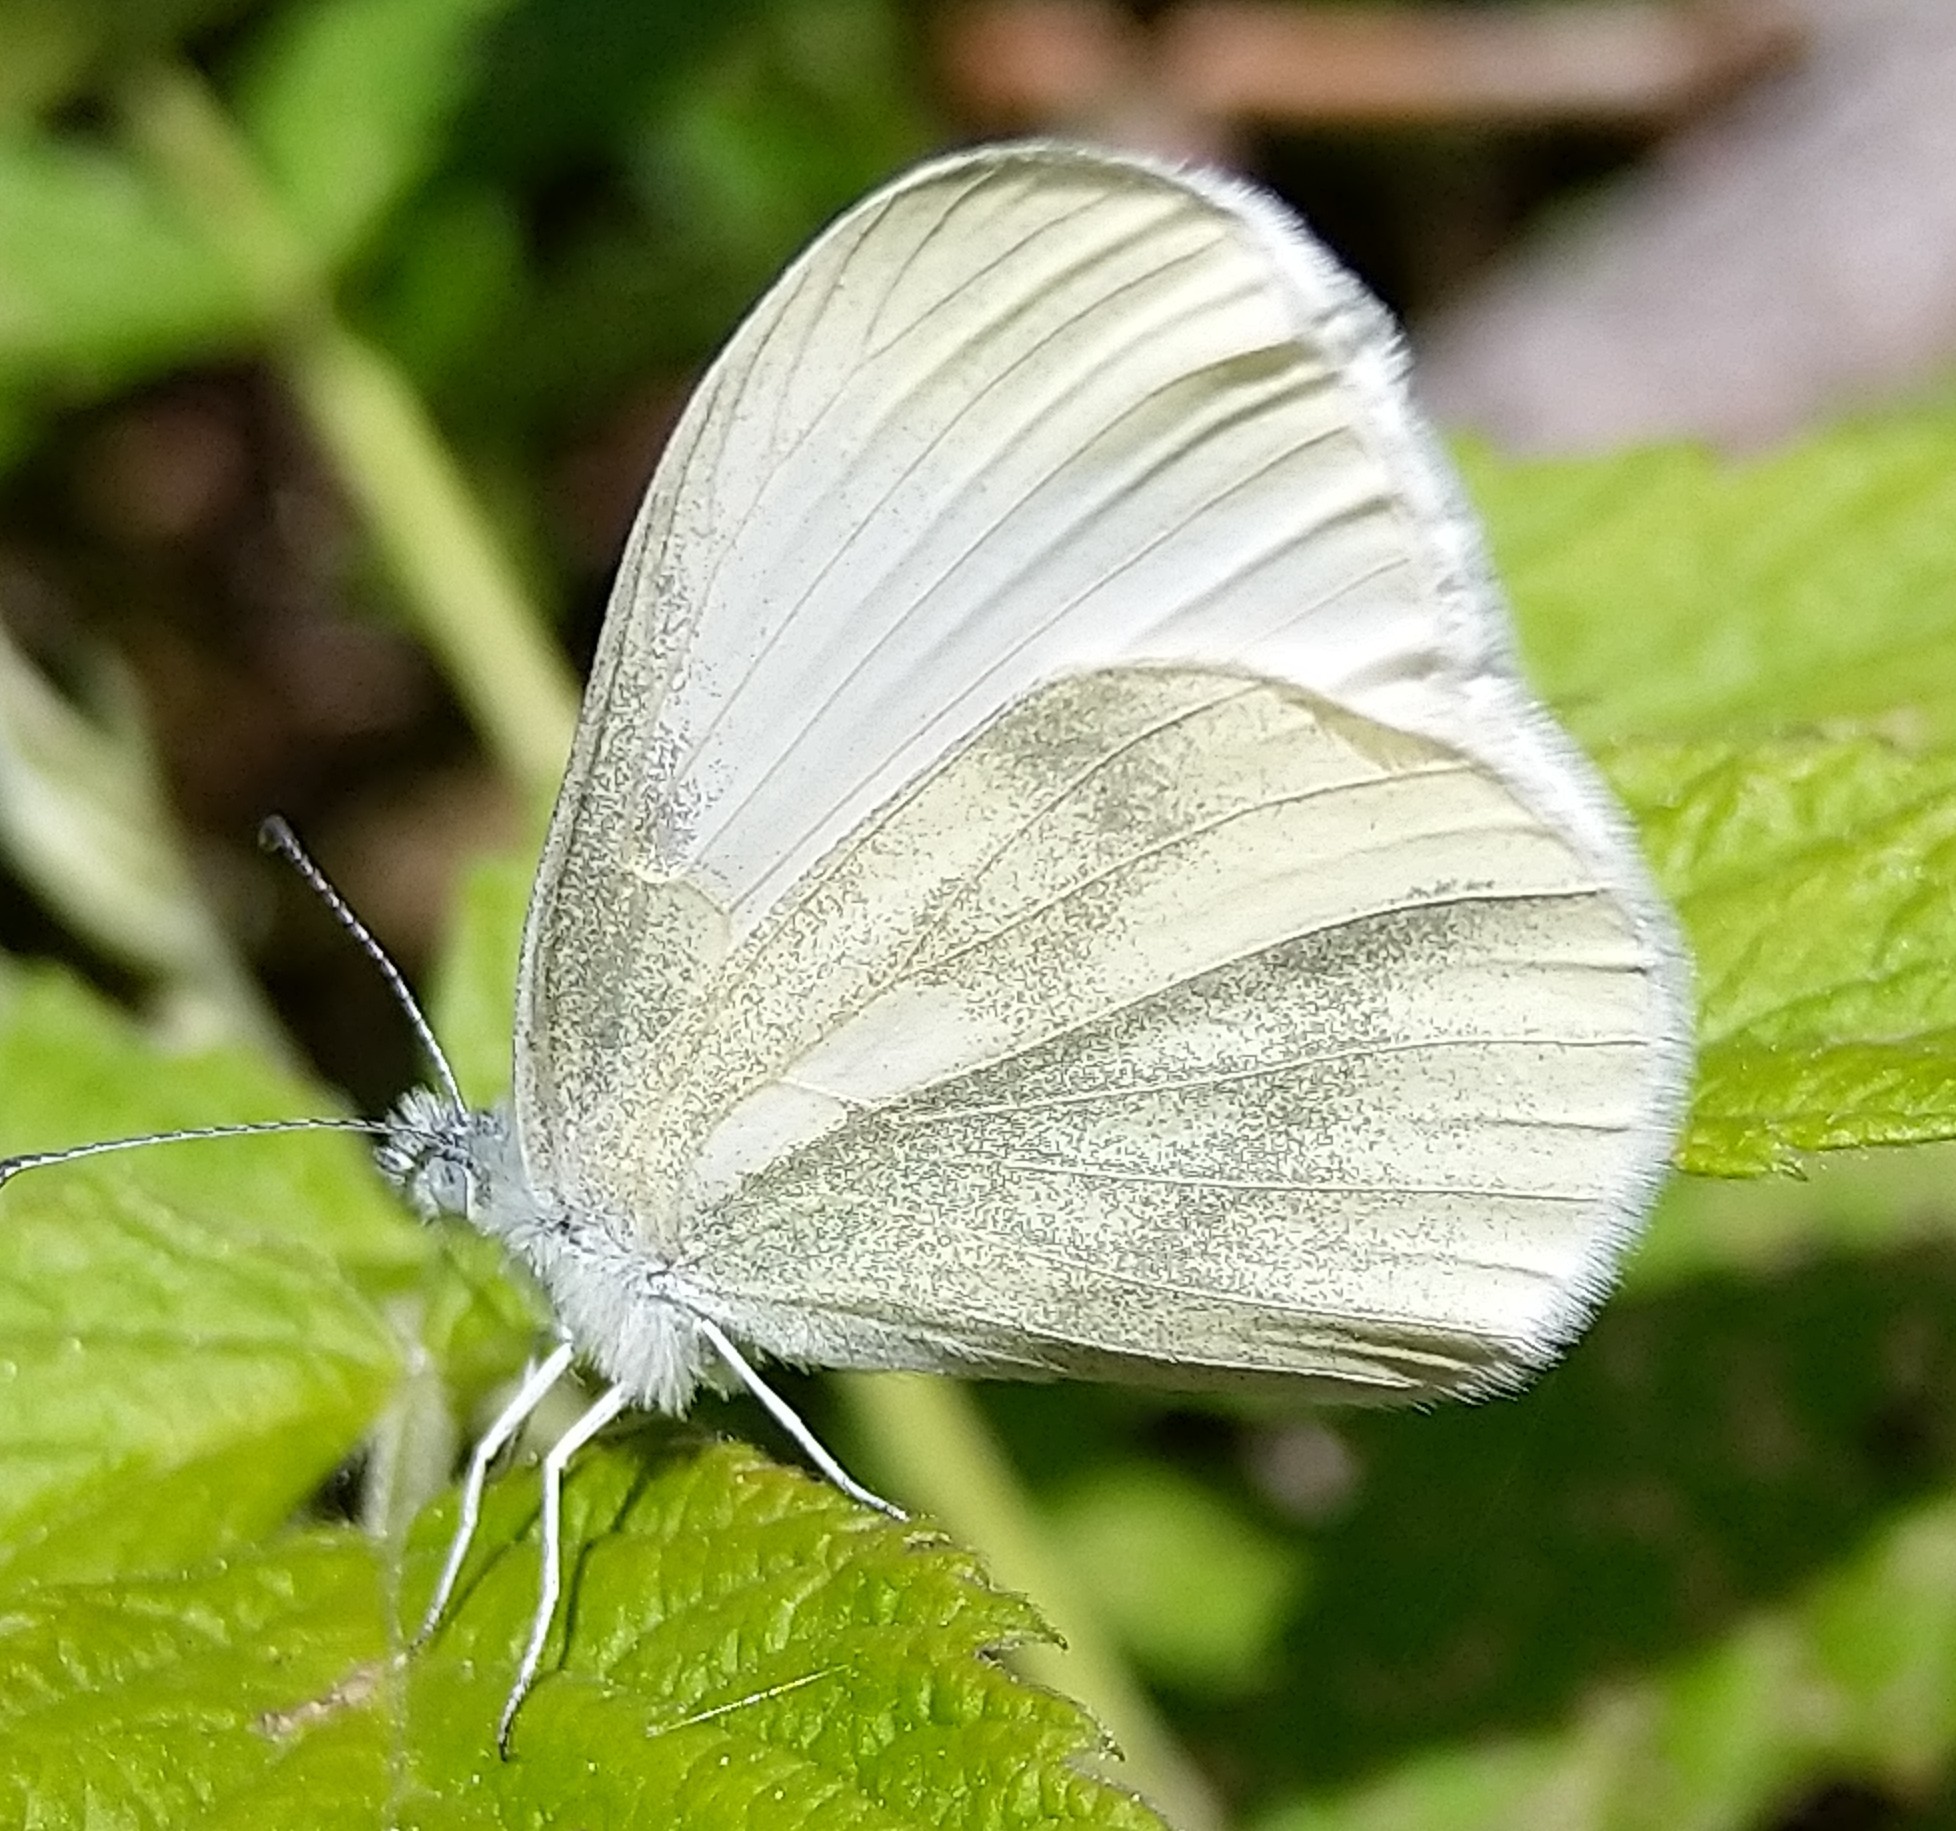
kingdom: Animalia
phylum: Arthropoda
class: Insecta
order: Lepidoptera
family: Pieridae
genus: Leptidea
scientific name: Leptidea
